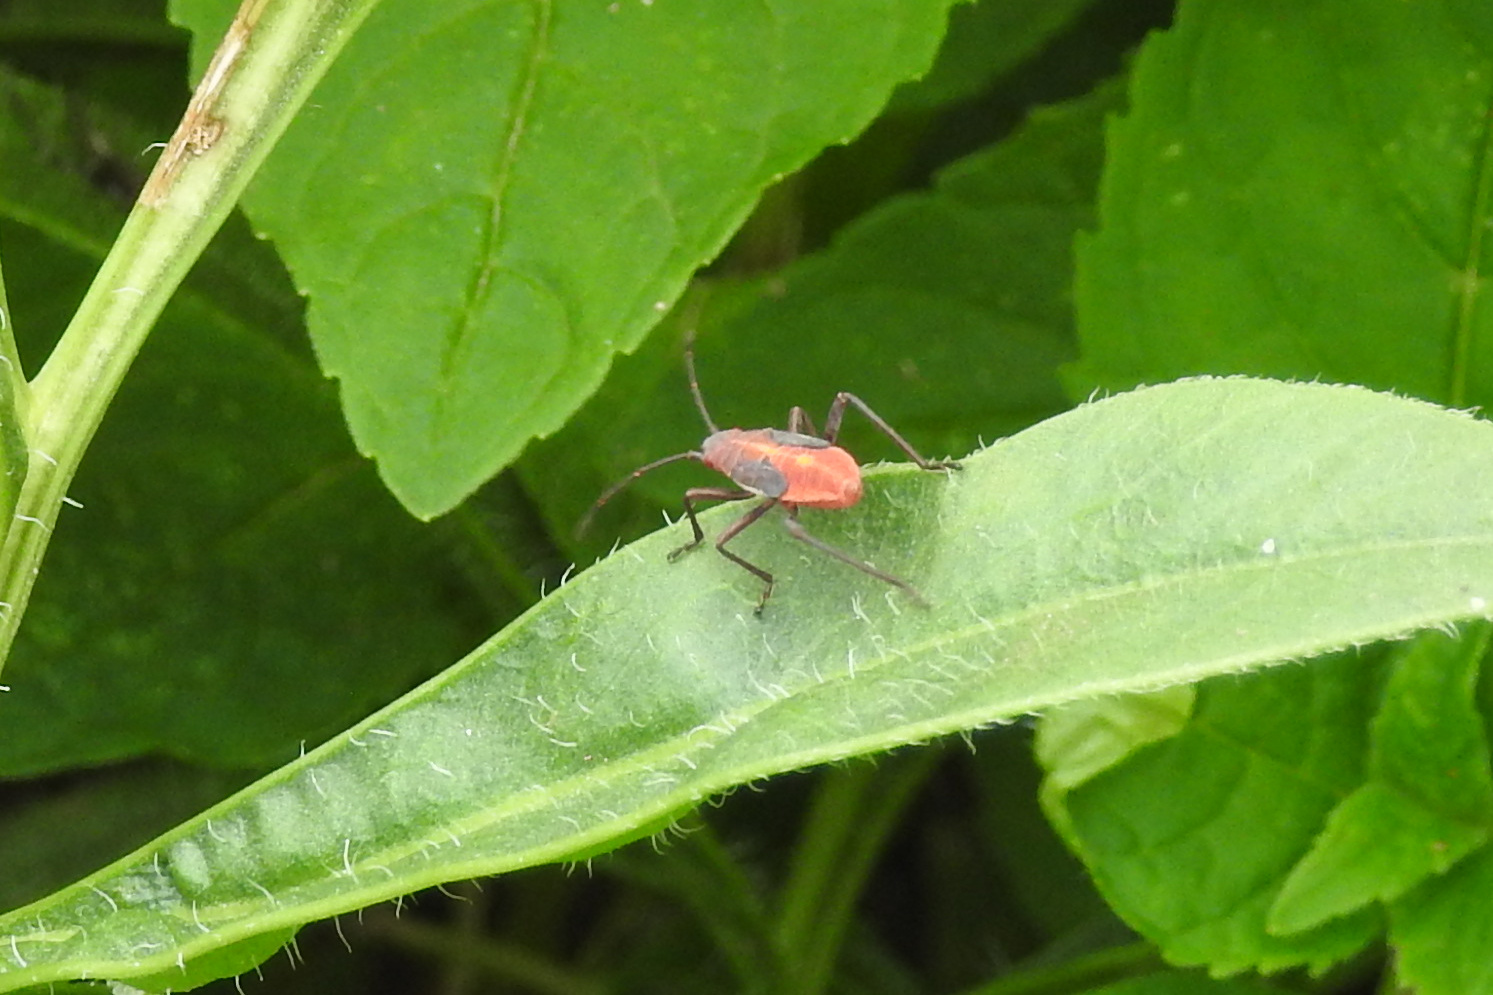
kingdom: Animalia
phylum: Arthropoda
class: Insecta
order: Hemiptera
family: Rhopalidae
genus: Boisea
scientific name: Boisea trivittata
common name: Boxelder bug
